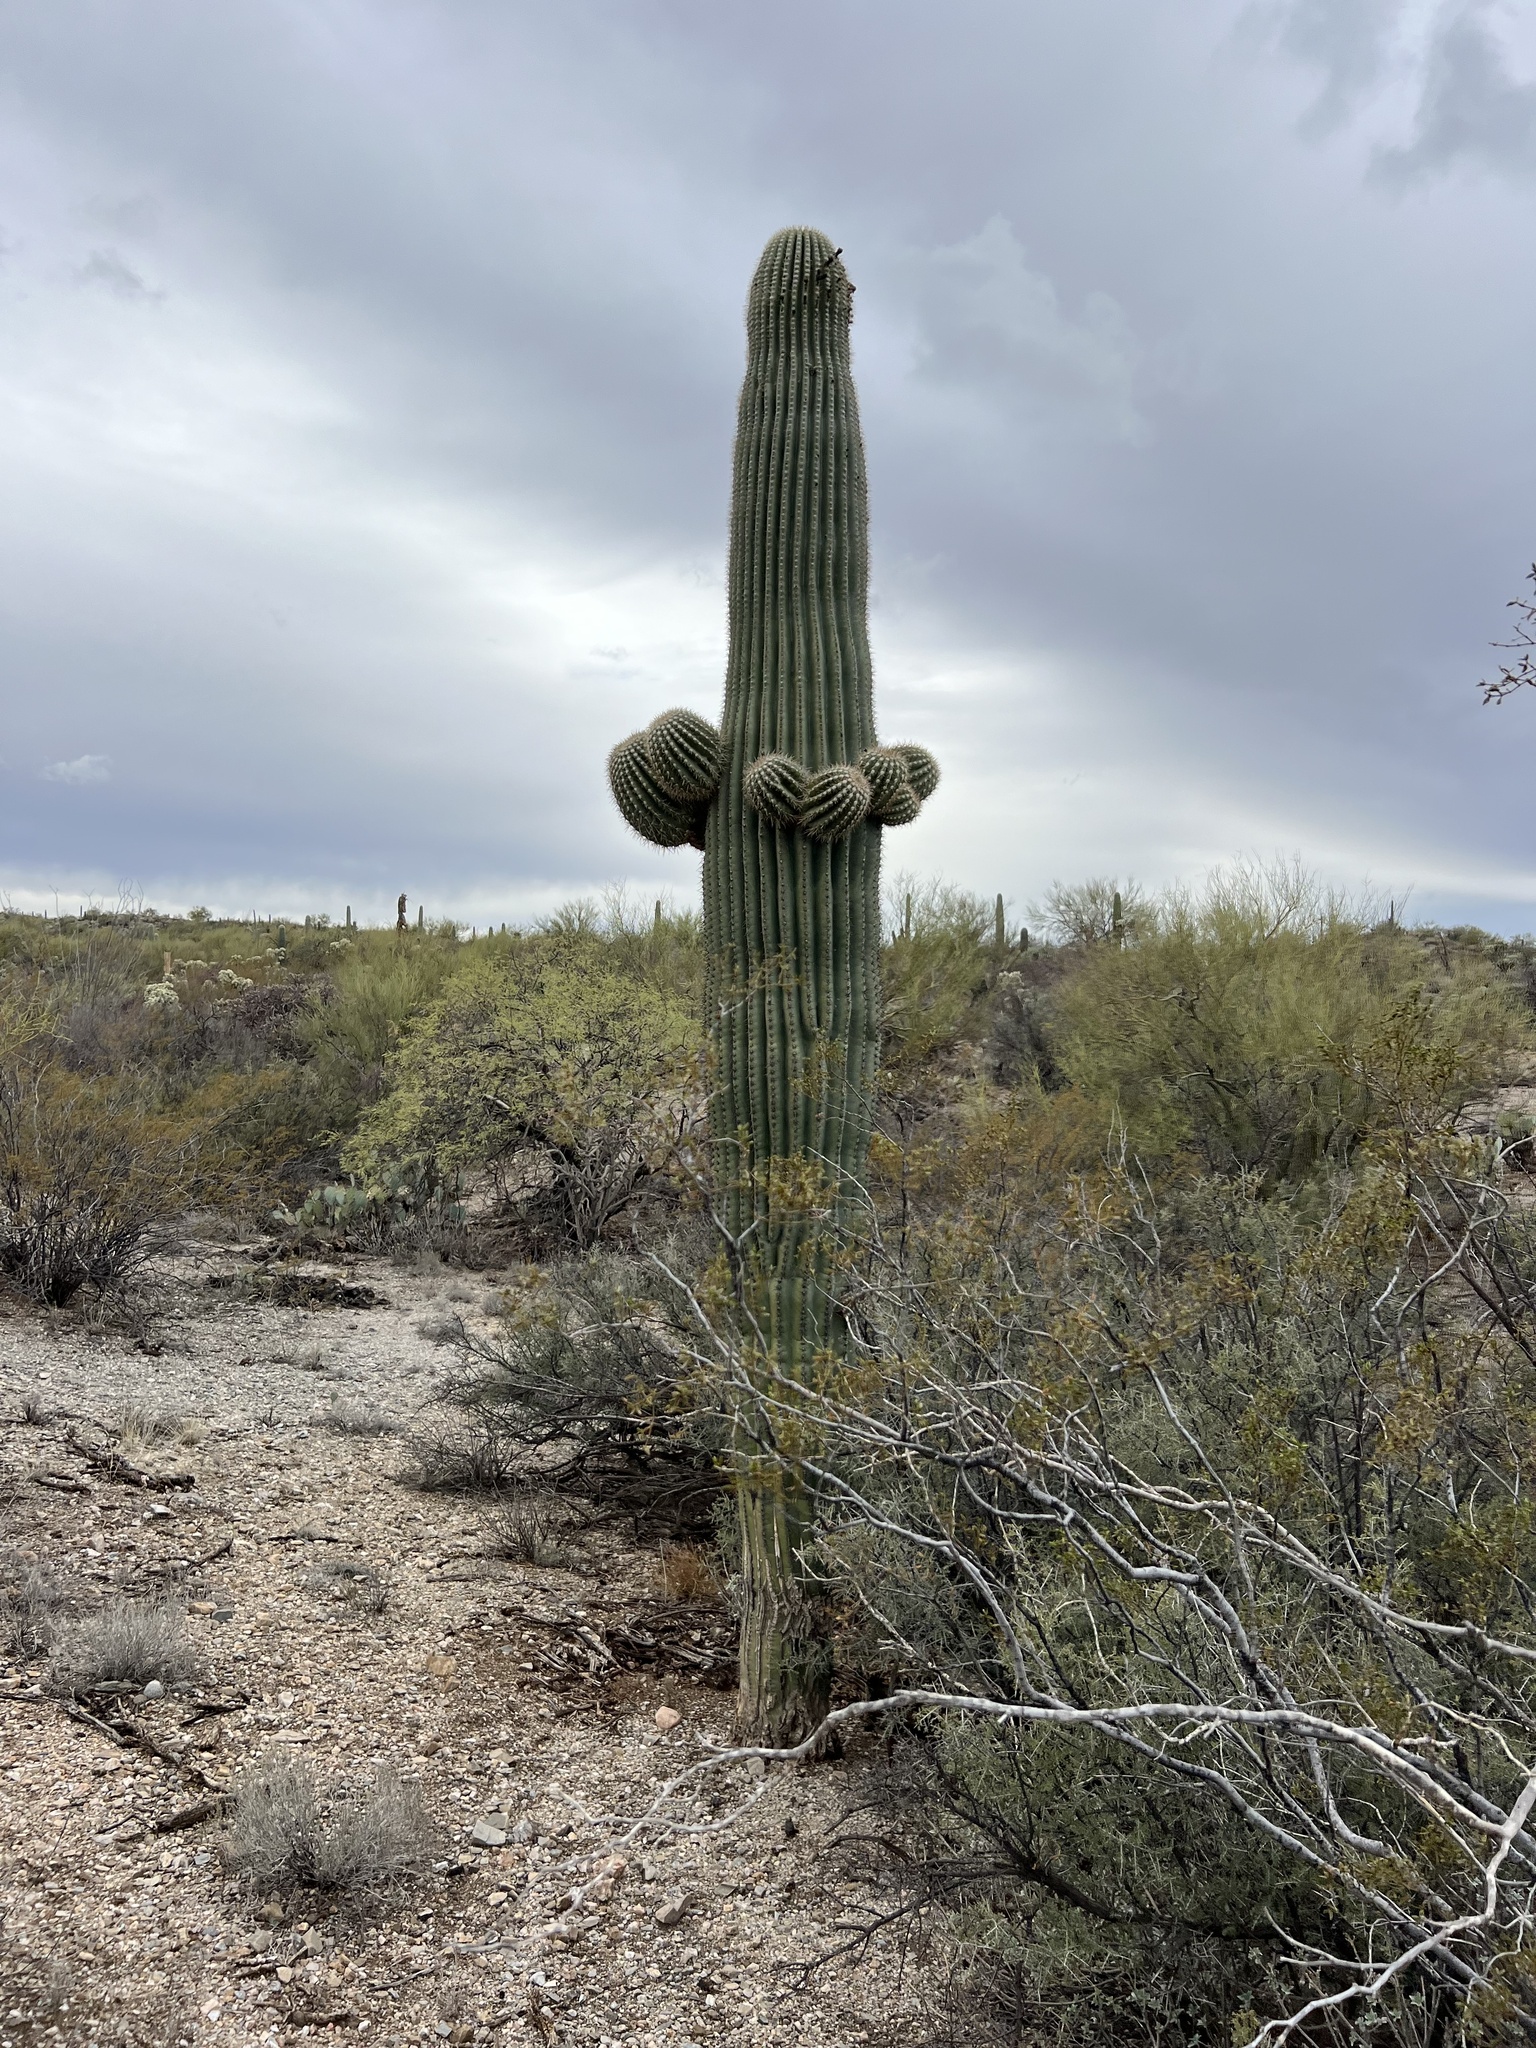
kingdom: Plantae
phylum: Tracheophyta
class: Magnoliopsida
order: Caryophyllales
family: Cactaceae
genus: Carnegiea
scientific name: Carnegiea gigantea
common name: Saguaro
